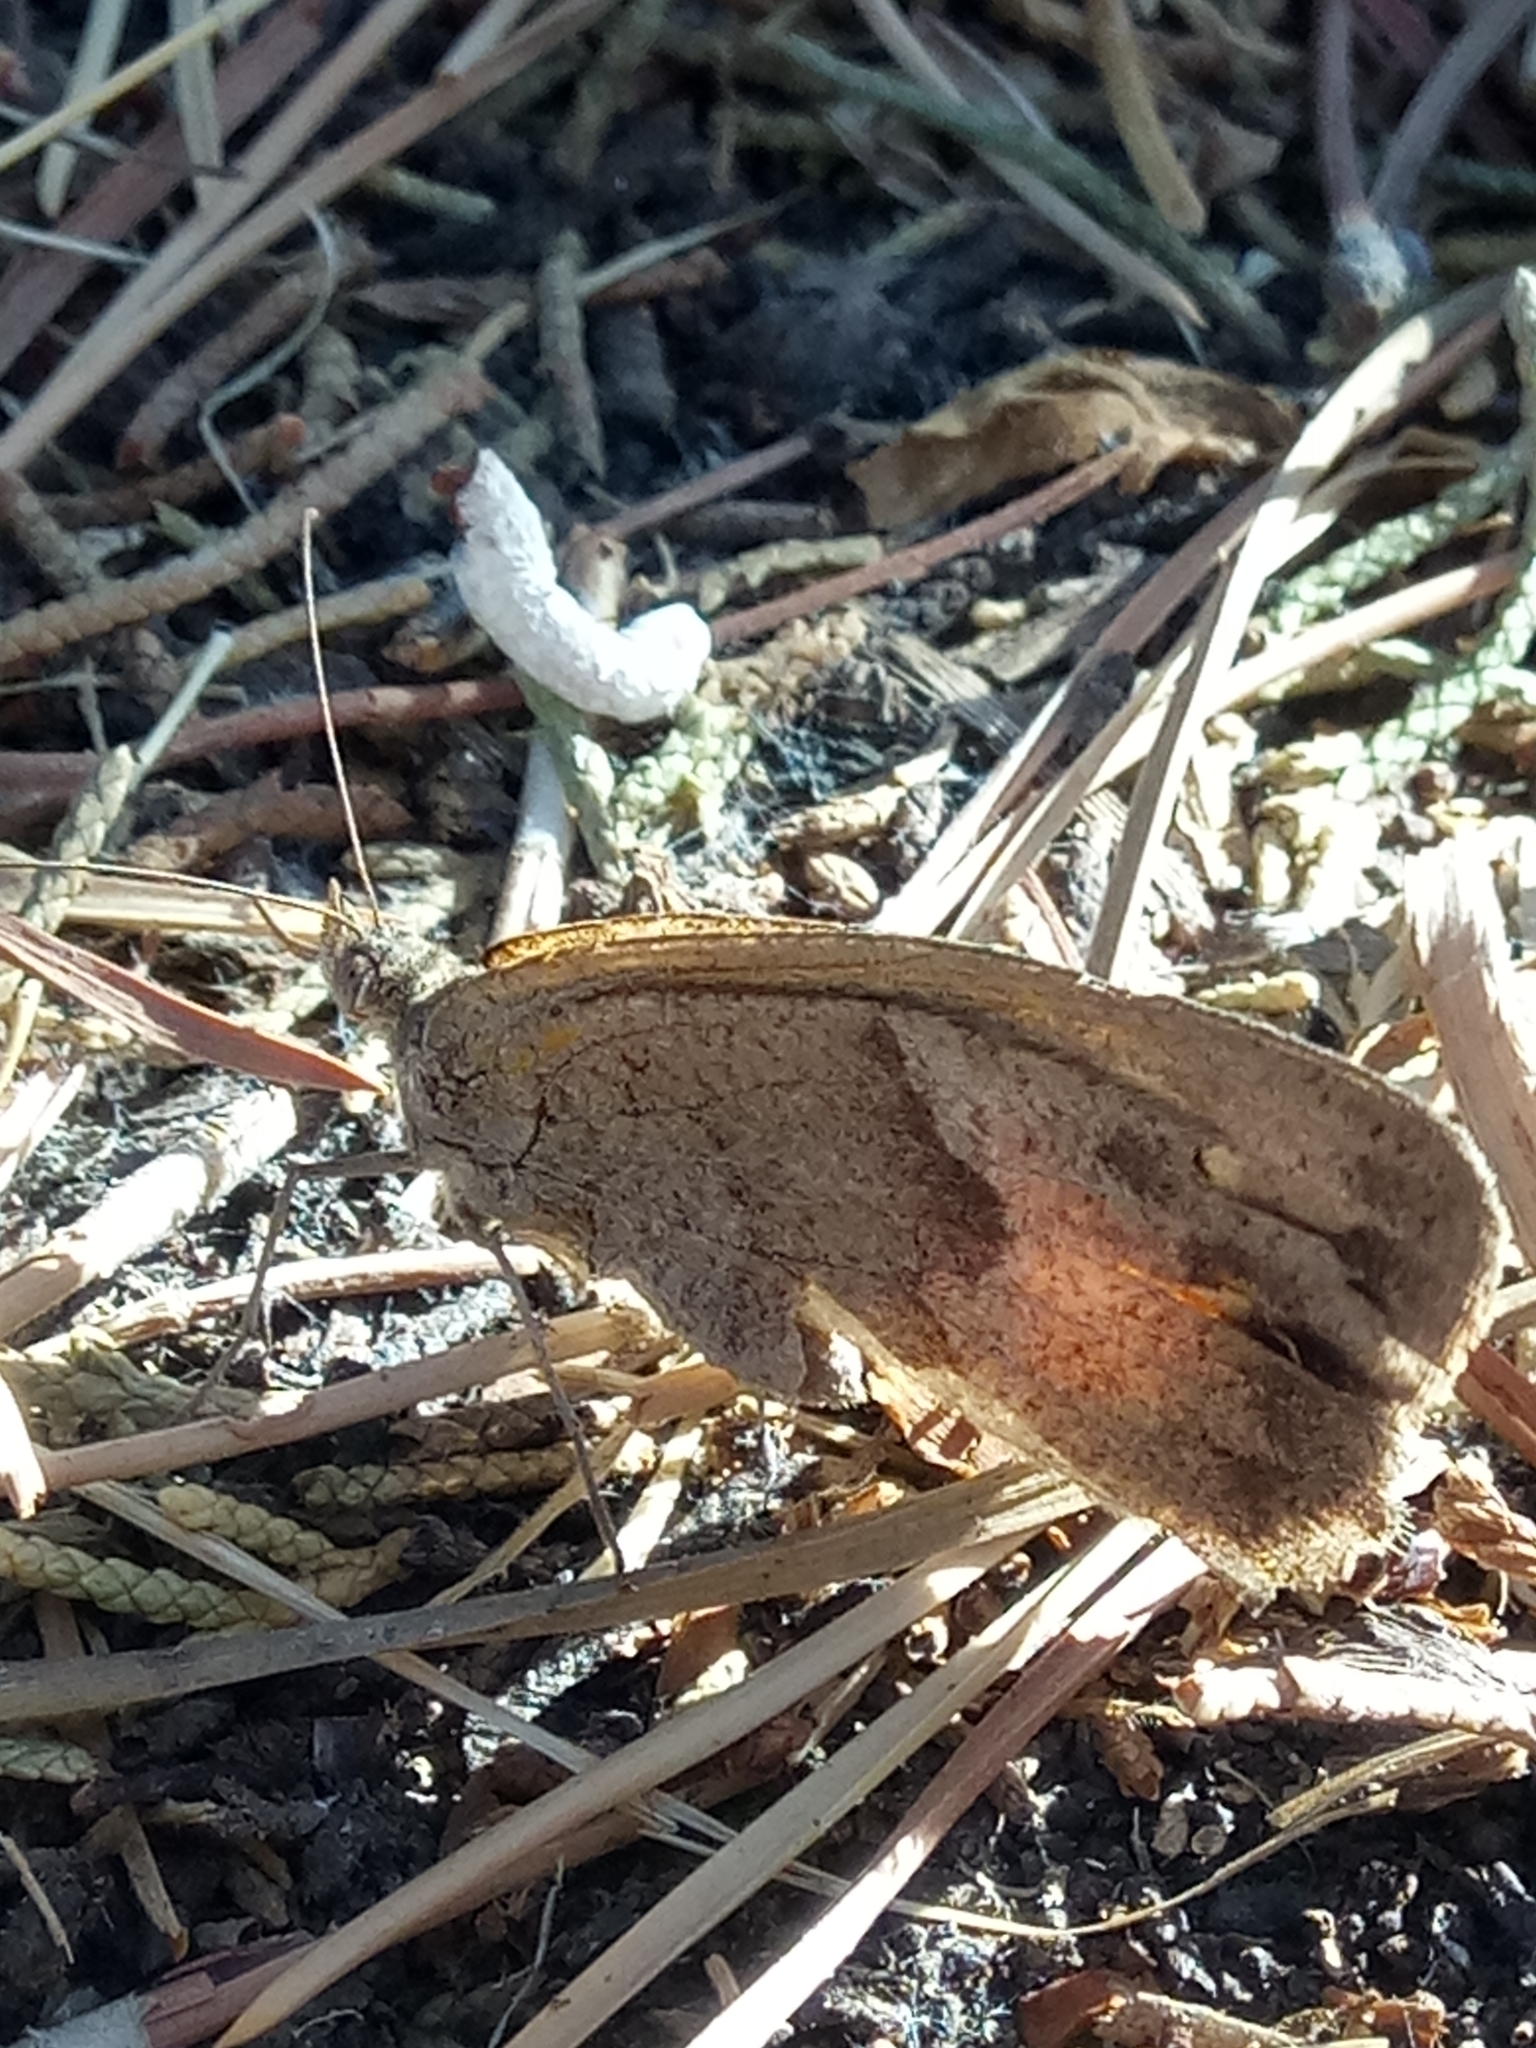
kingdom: Animalia
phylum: Arthropoda
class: Insecta
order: Lepidoptera
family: Nymphalidae
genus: Maniola
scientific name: Maniola jurtina
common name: Meadow brown
